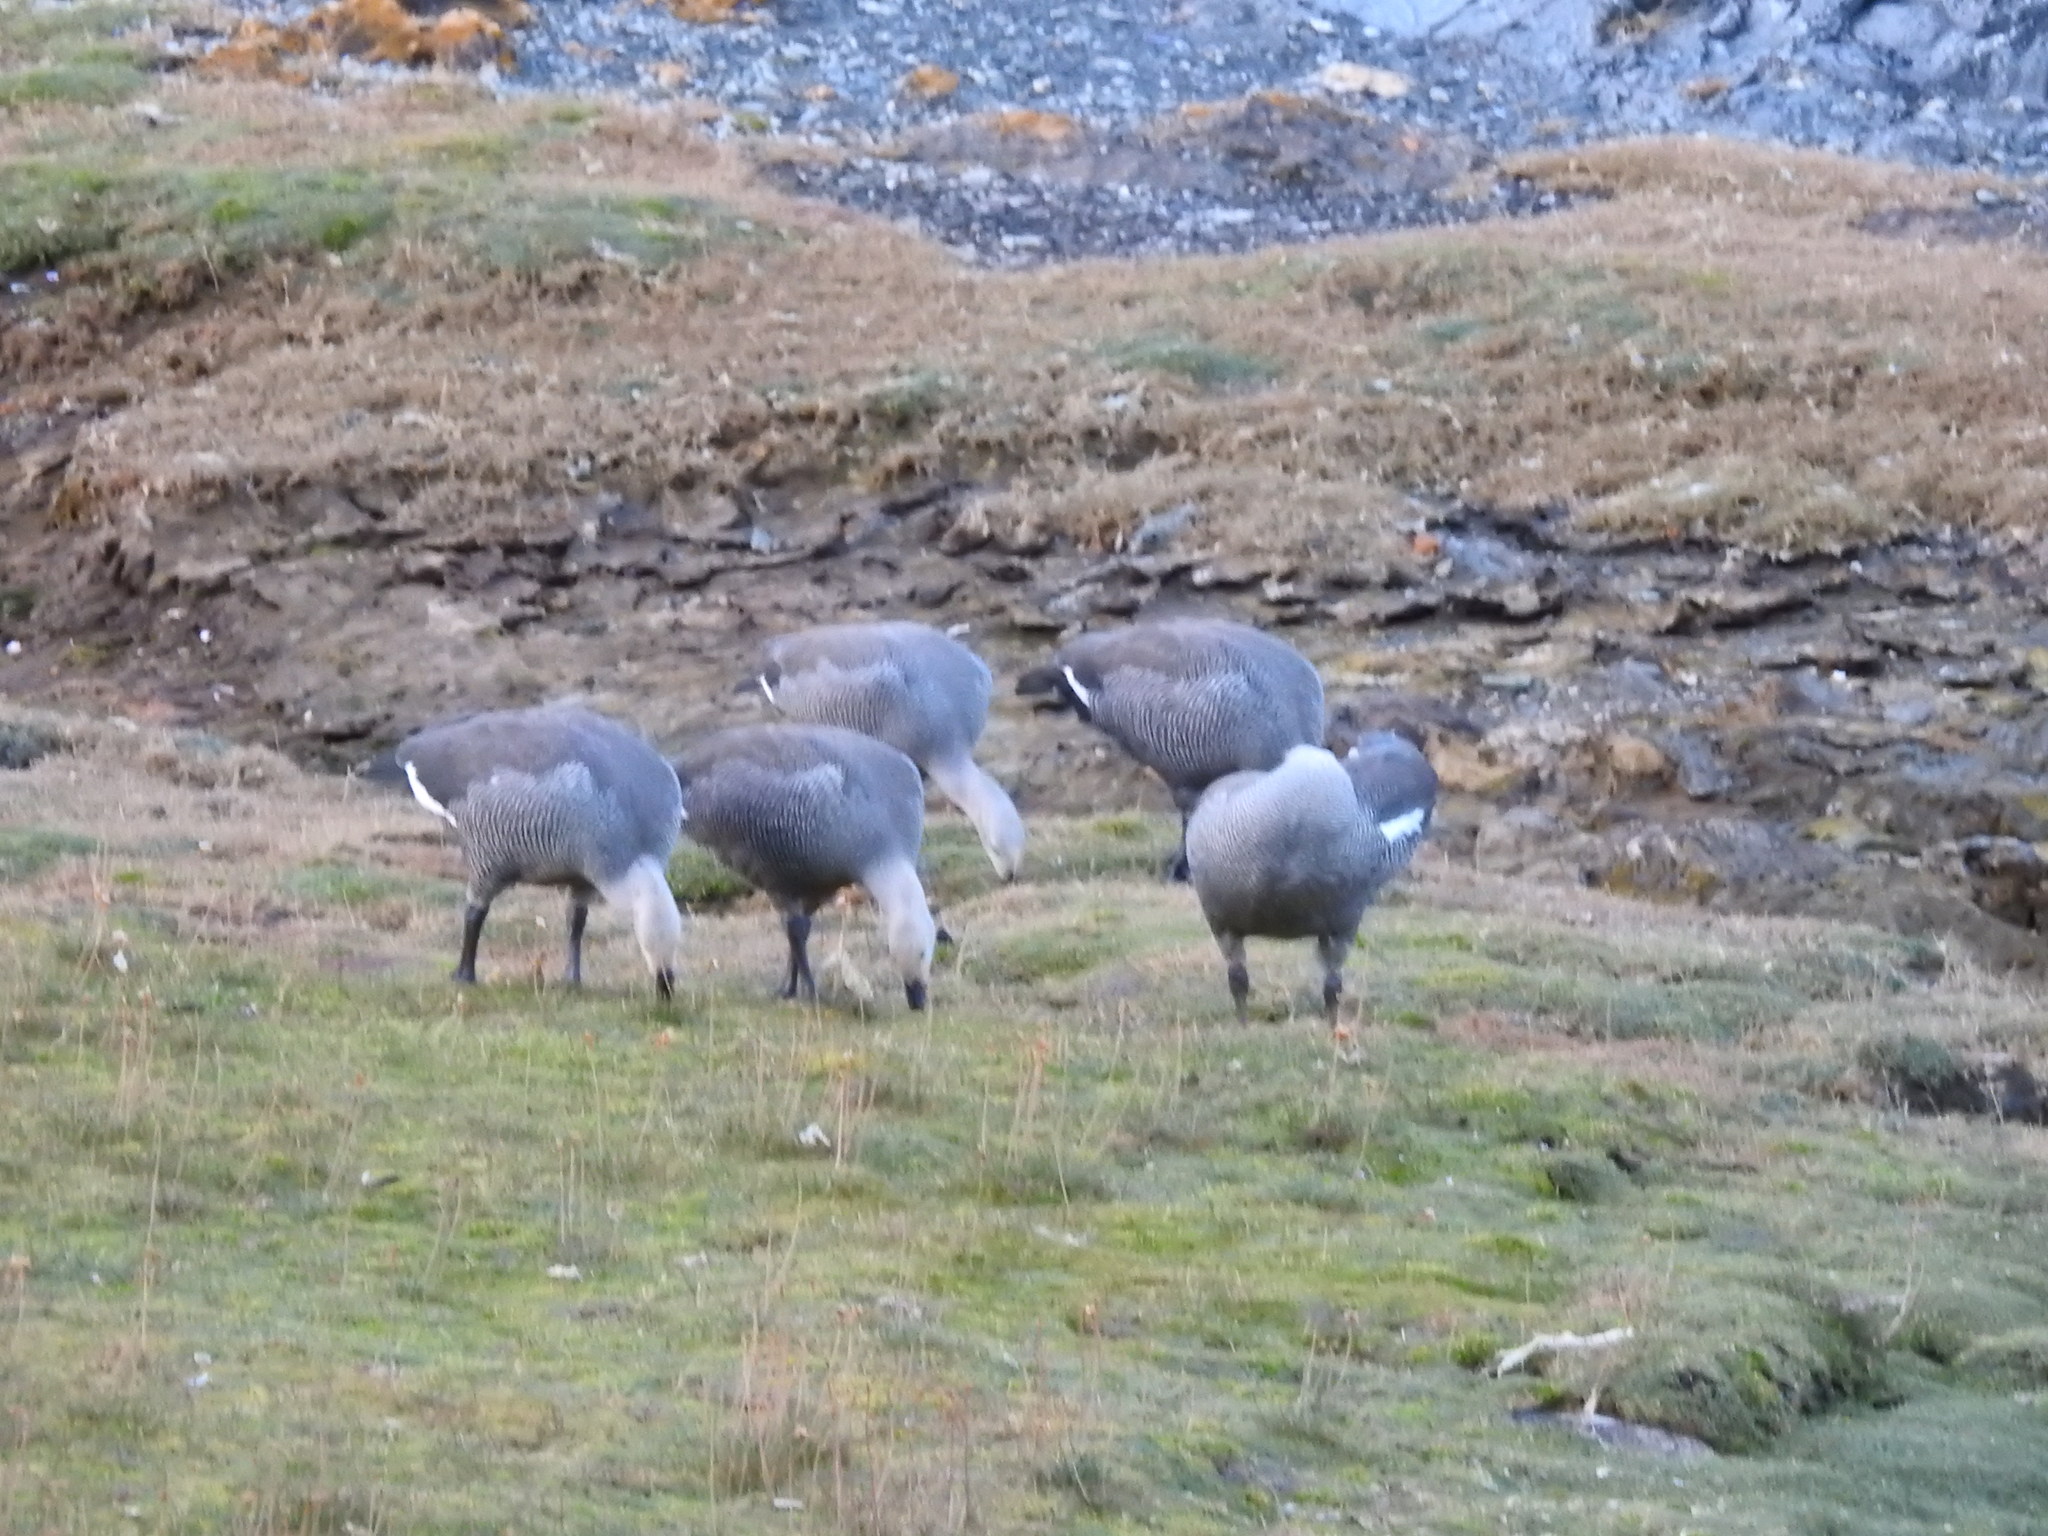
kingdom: Animalia
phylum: Chordata
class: Aves
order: Anseriformes
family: Anatidae
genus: Chloephaga
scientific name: Chloephaga picta
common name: Upland goose
